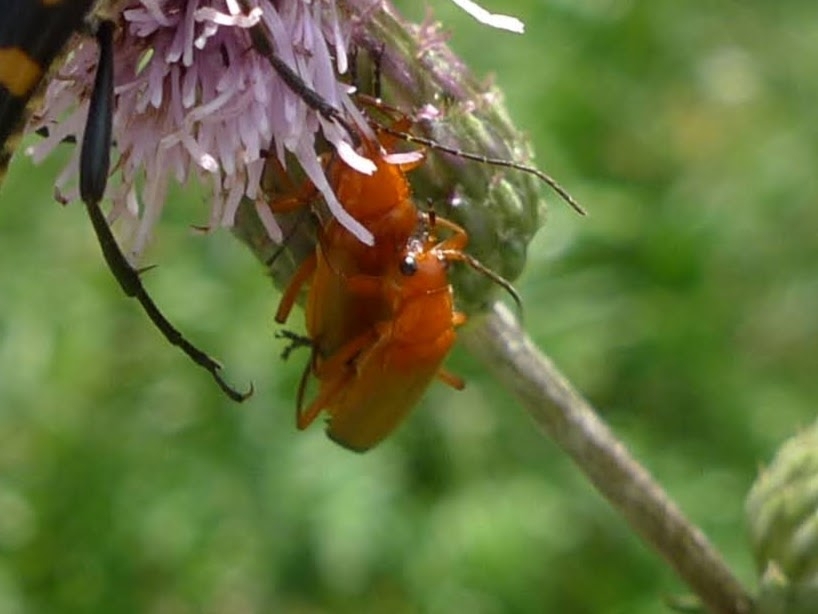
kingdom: Animalia
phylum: Arthropoda
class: Insecta
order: Coleoptera
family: Cantharidae
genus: Rhagonycha
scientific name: Rhagonycha fulva
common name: Common red soldier beetle
